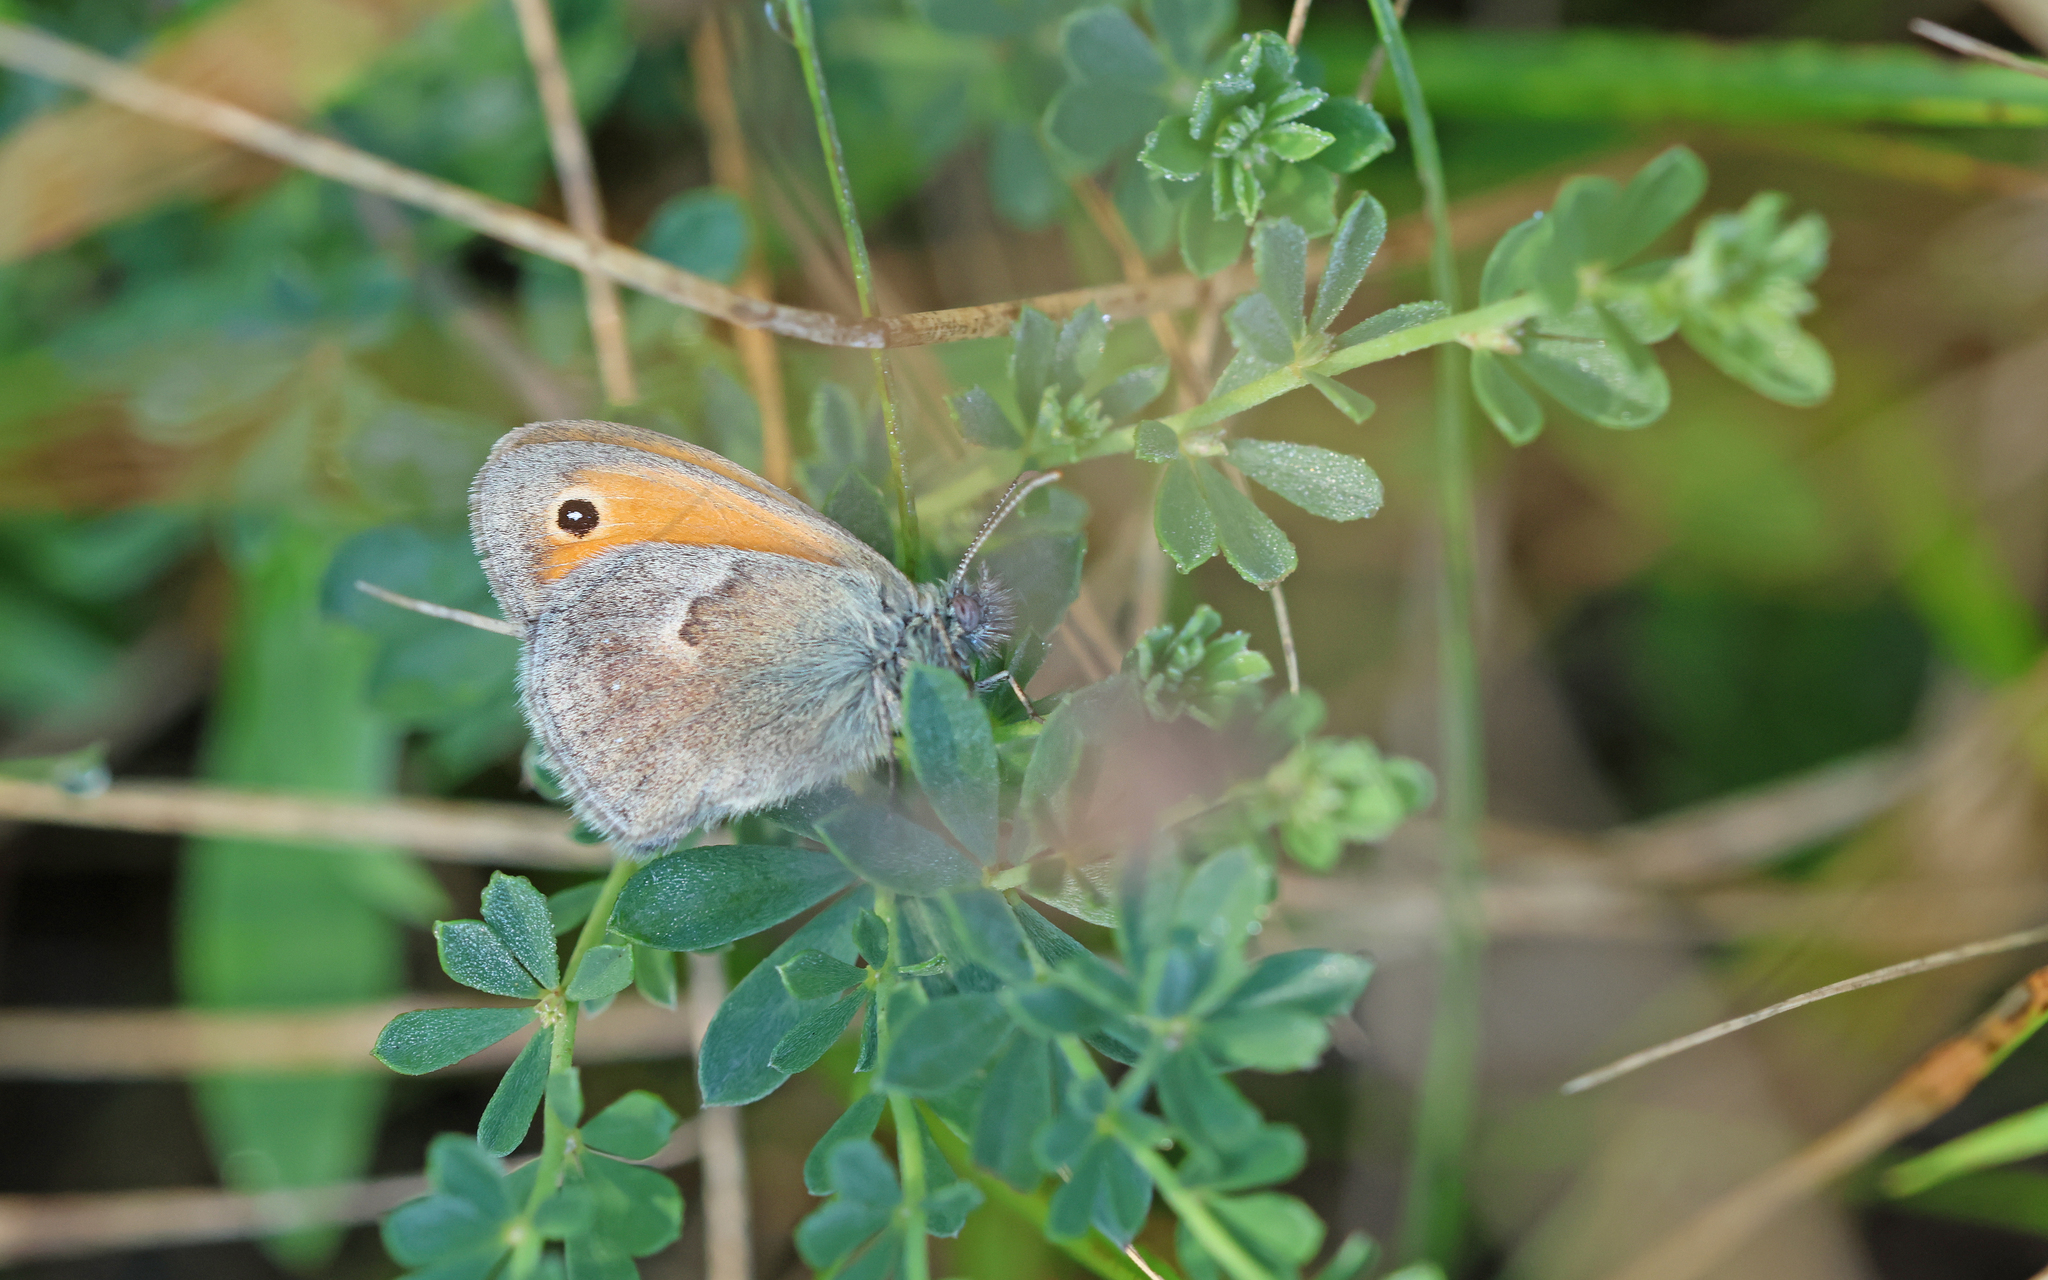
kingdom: Animalia
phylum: Arthropoda
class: Insecta
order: Lepidoptera
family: Nymphalidae
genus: Coenonympha
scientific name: Coenonympha pamphilus
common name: Small heath
